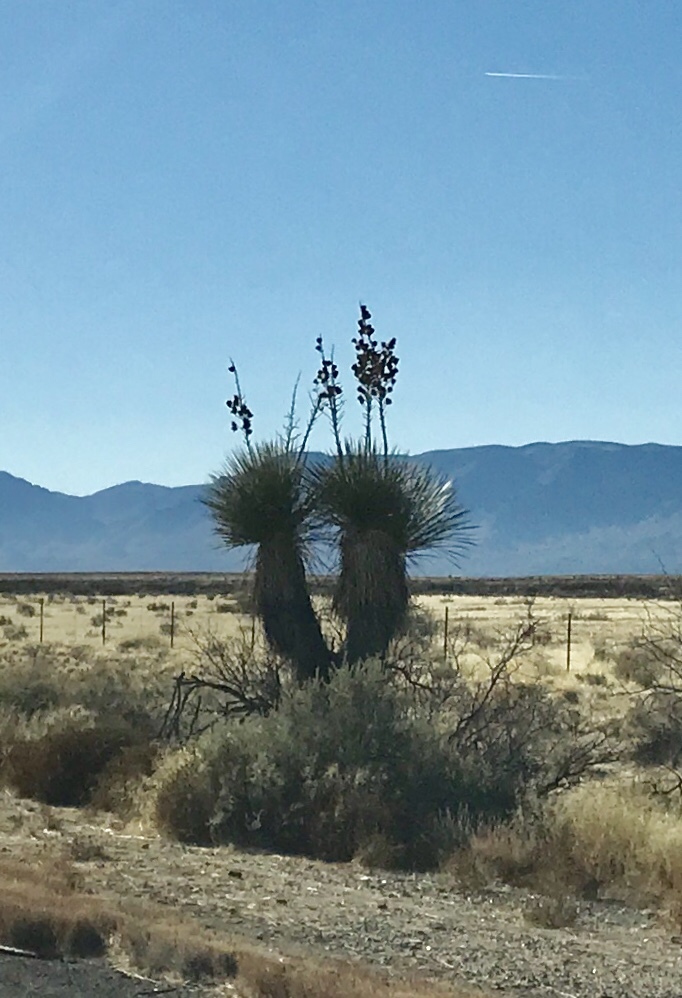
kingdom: Plantae
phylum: Tracheophyta
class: Liliopsida
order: Asparagales
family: Asparagaceae
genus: Yucca
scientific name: Yucca elata
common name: Palmella
